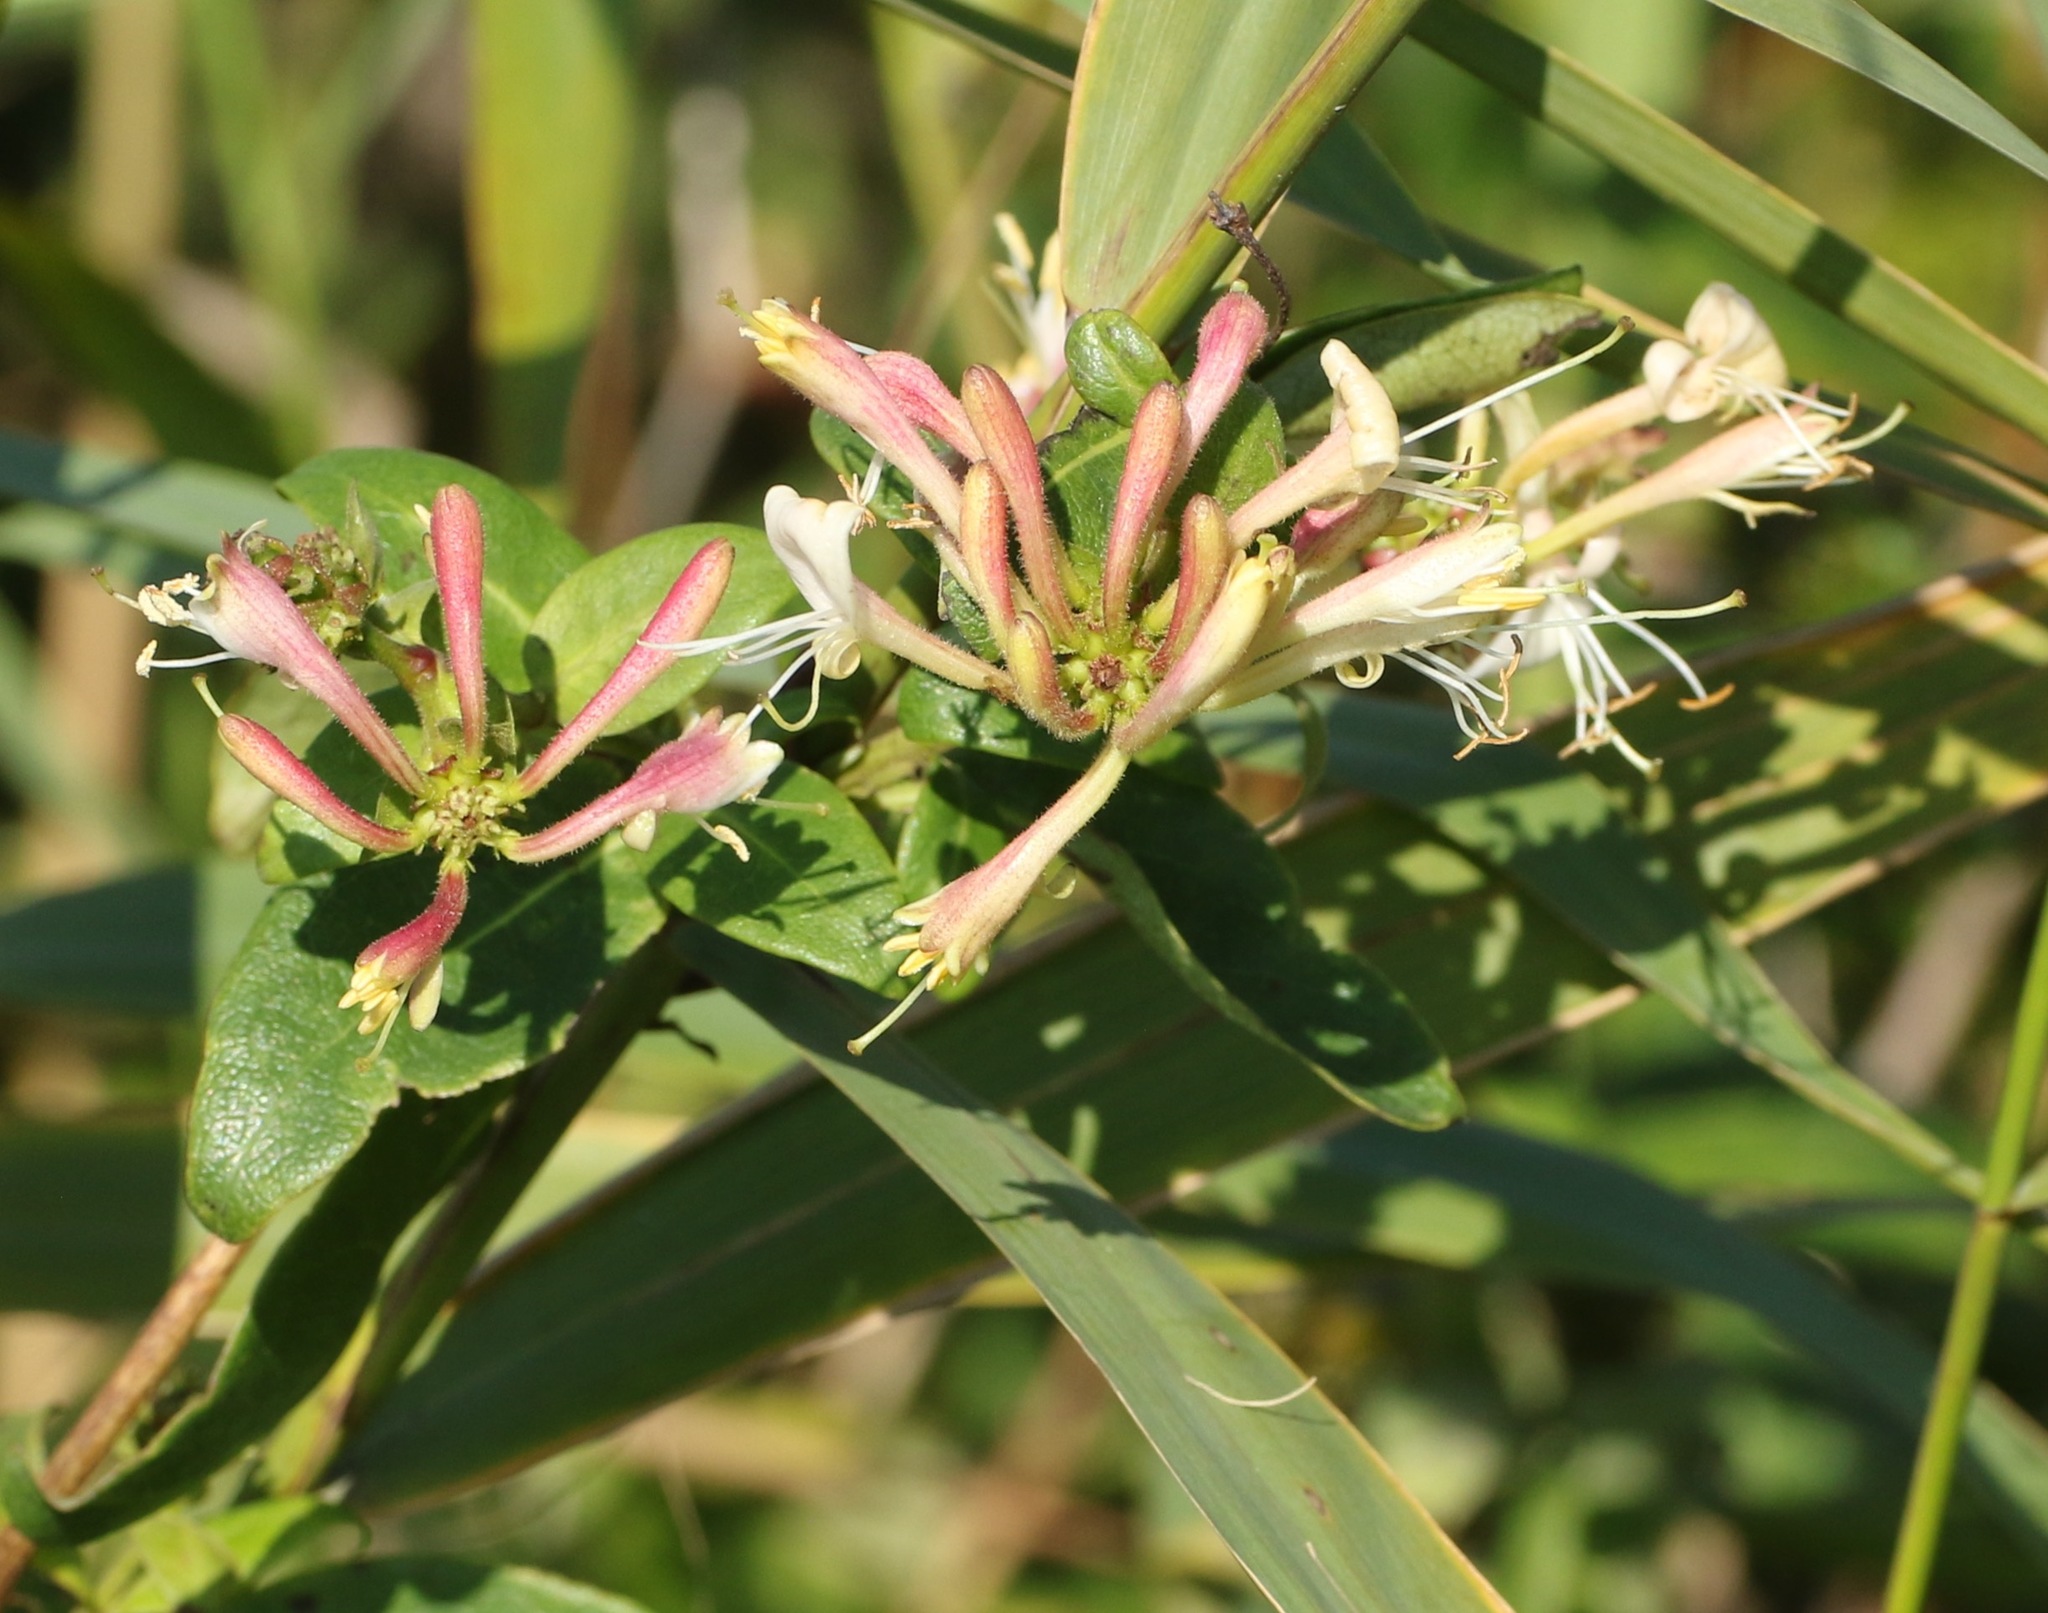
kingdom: Plantae
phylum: Tracheophyta
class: Magnoliopsida
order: Dipsacales
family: Caprifoliaceae
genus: Lonicera
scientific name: Lonicera periclymenum
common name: European honeysuckle
